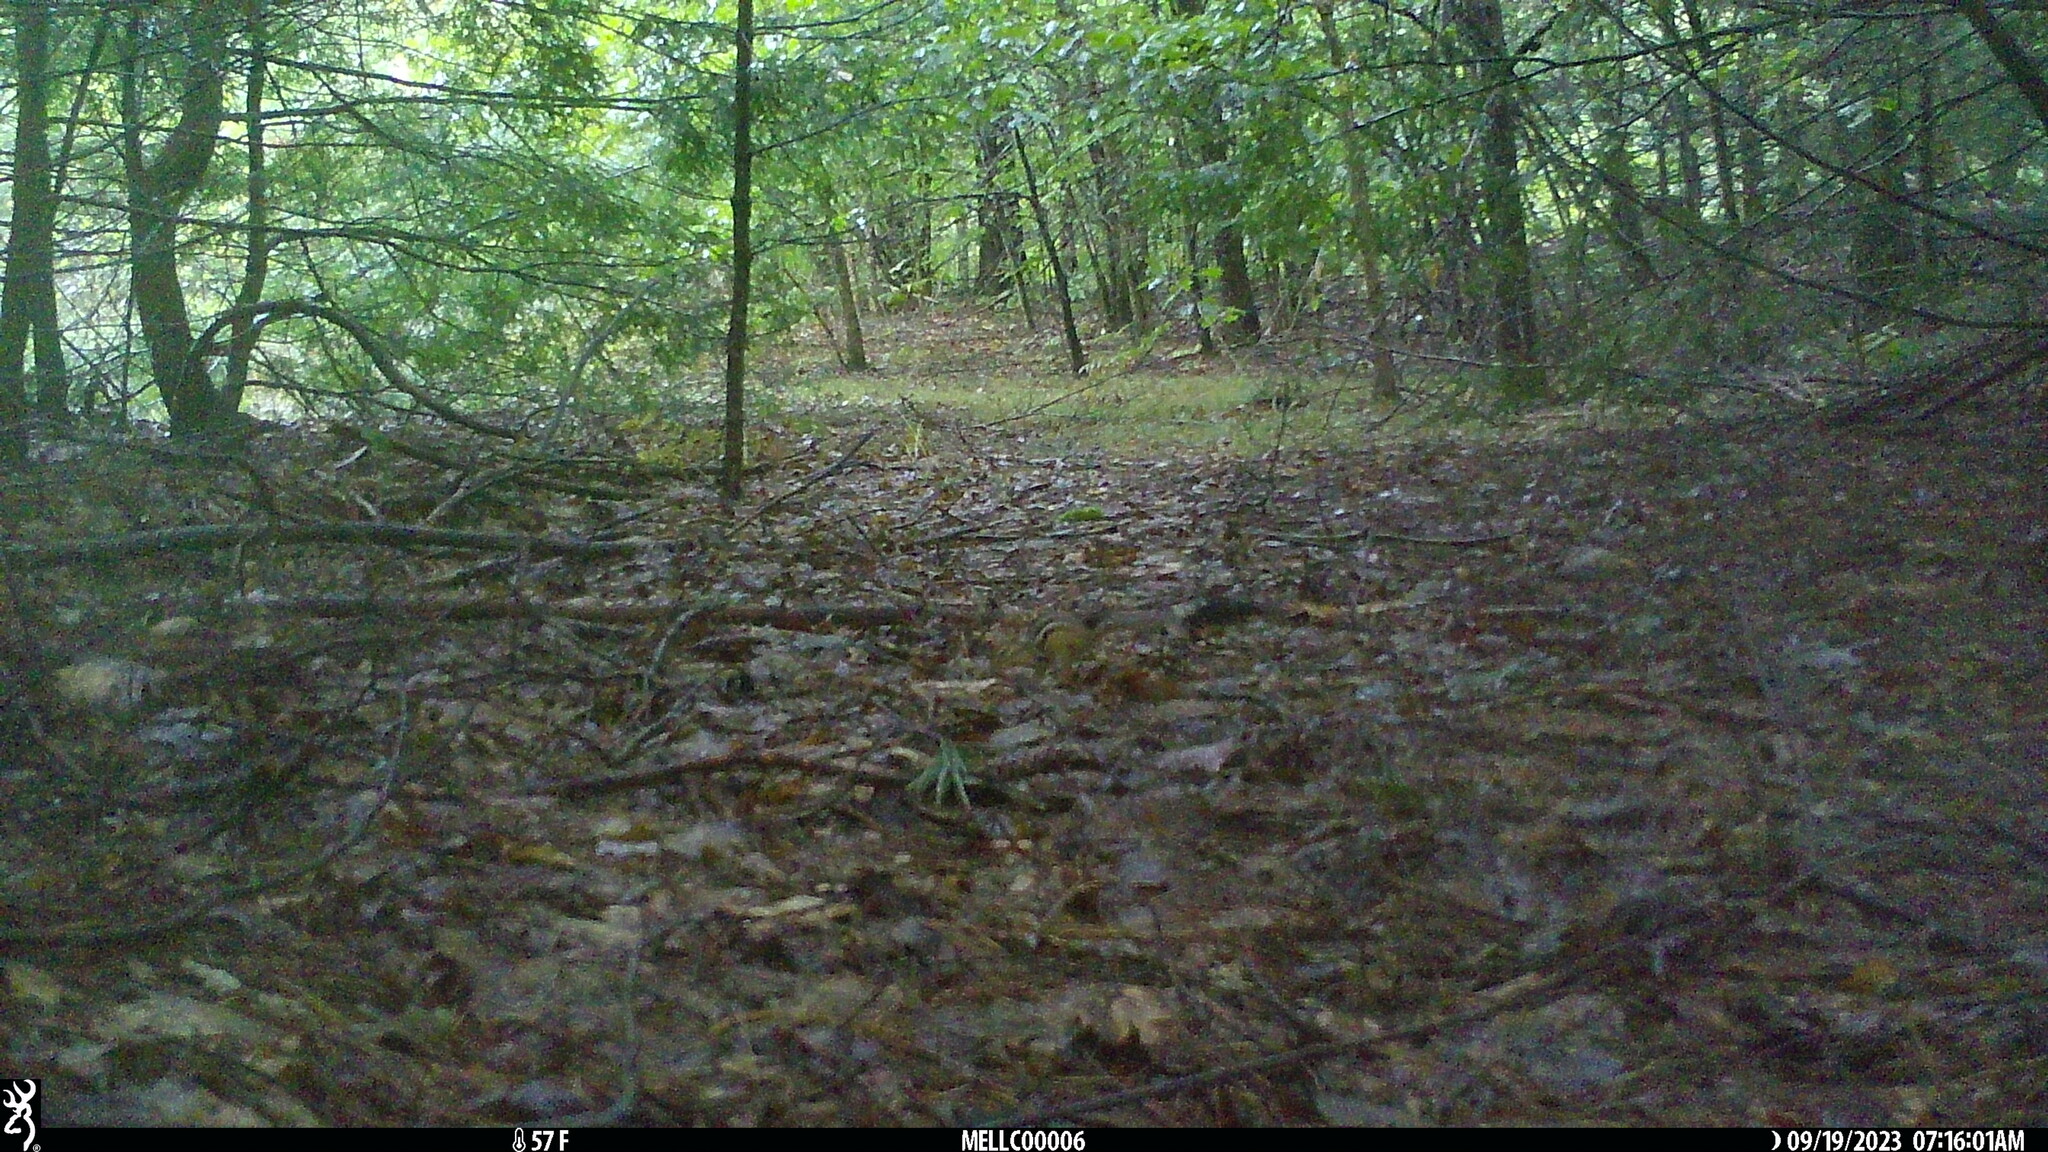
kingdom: Animalia
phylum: Chordata
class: Mammalia
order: Rodentia
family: Sciuridae
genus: Tamias
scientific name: Tamias striatus
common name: Eastern chipmunk
